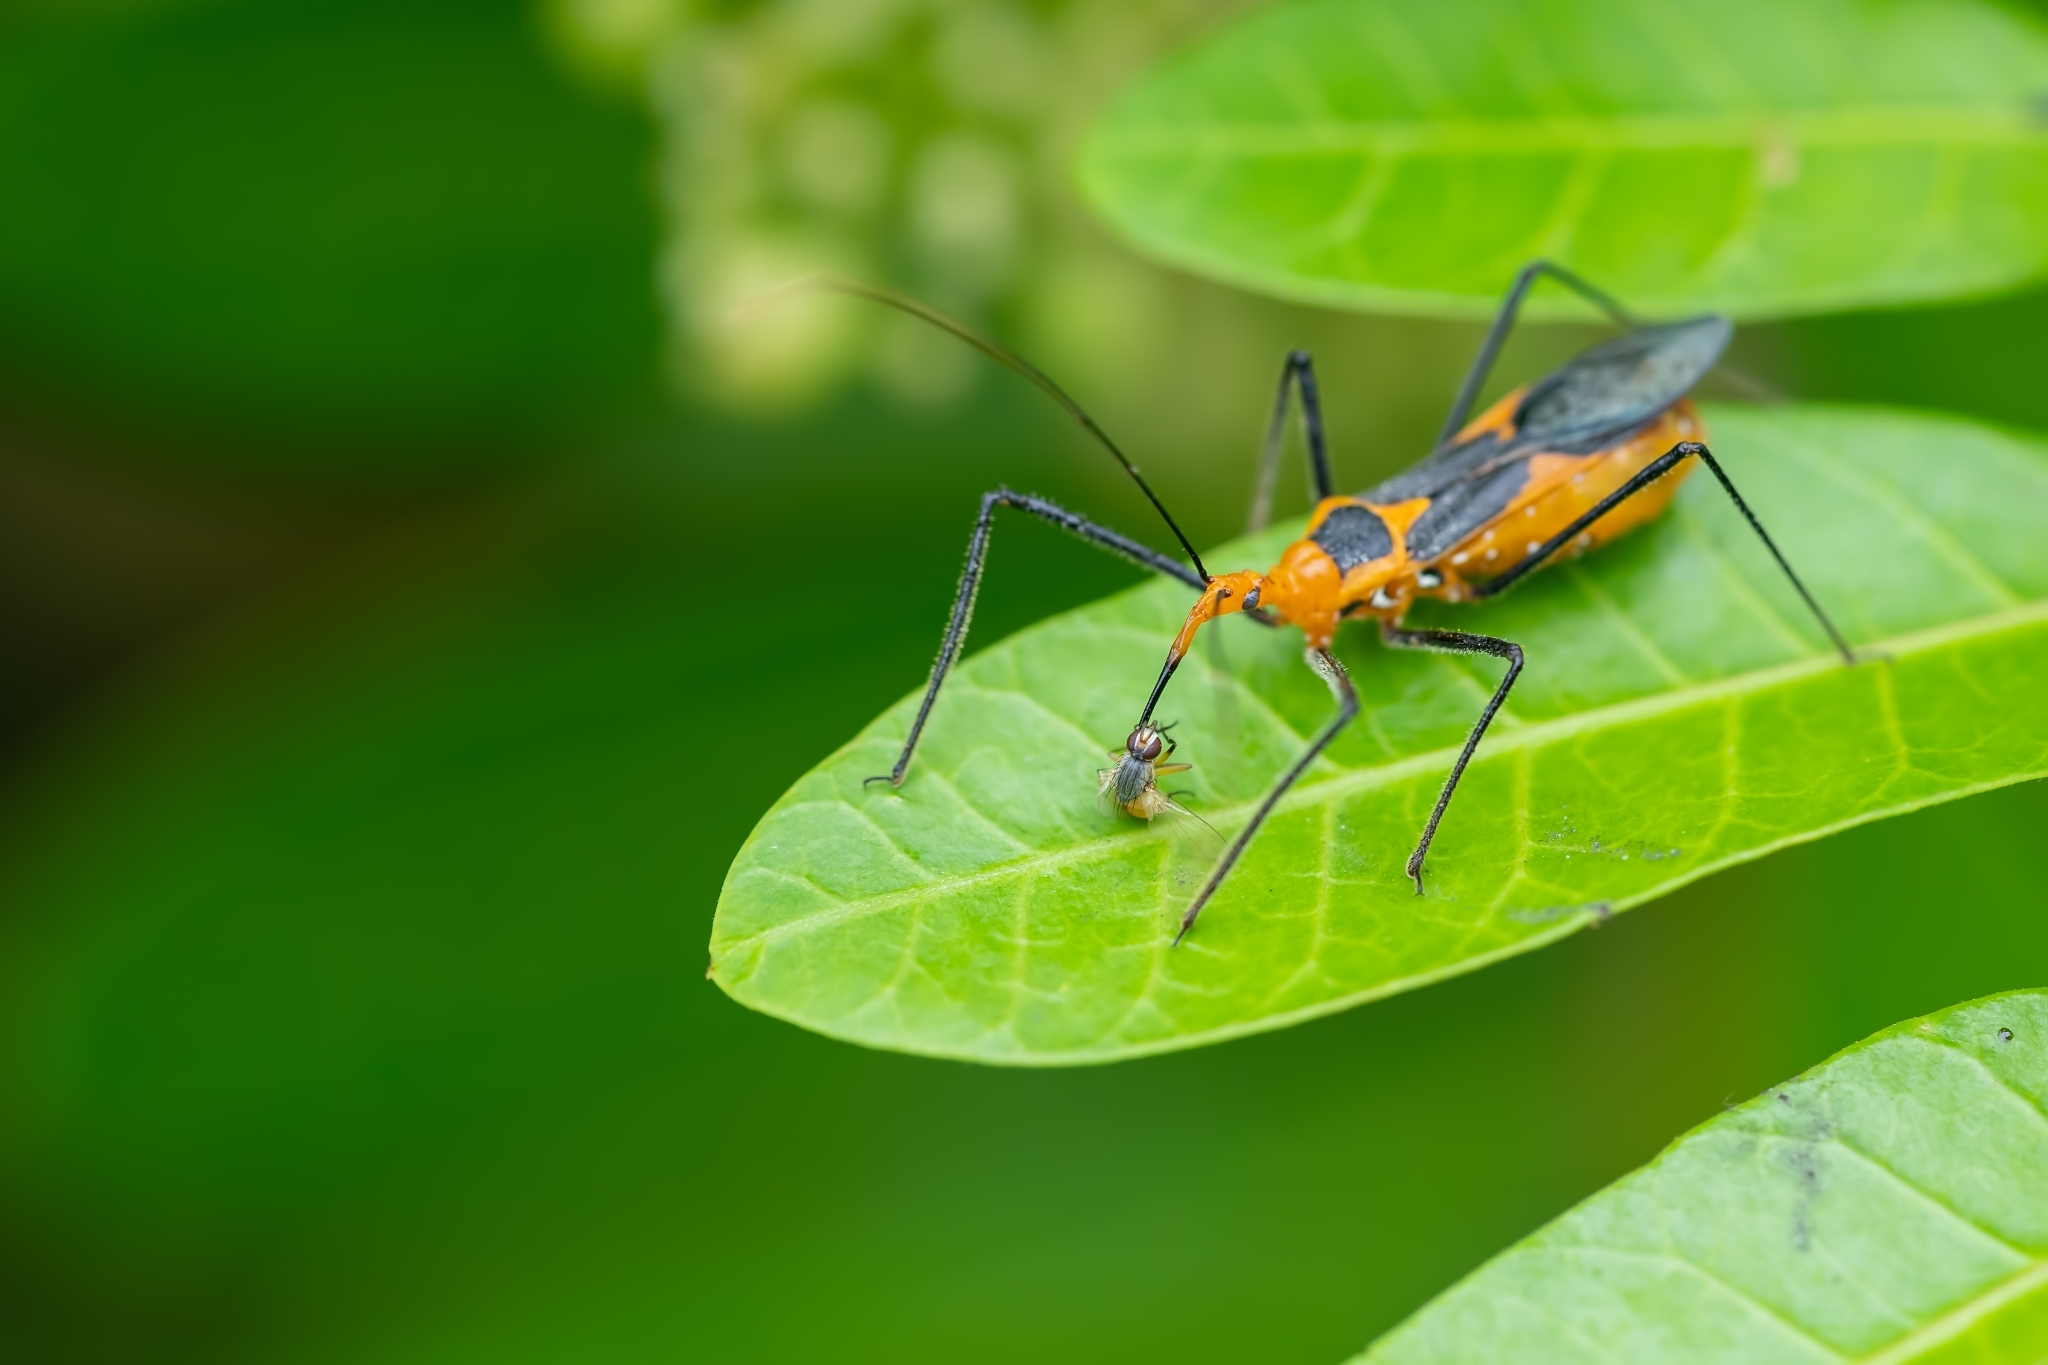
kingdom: Animalia
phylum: Arthropoda
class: Insecta
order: Hemiptera
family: Reduviidae
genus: Zelus
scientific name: Zelus longipes
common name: Milkweed assassin bug
